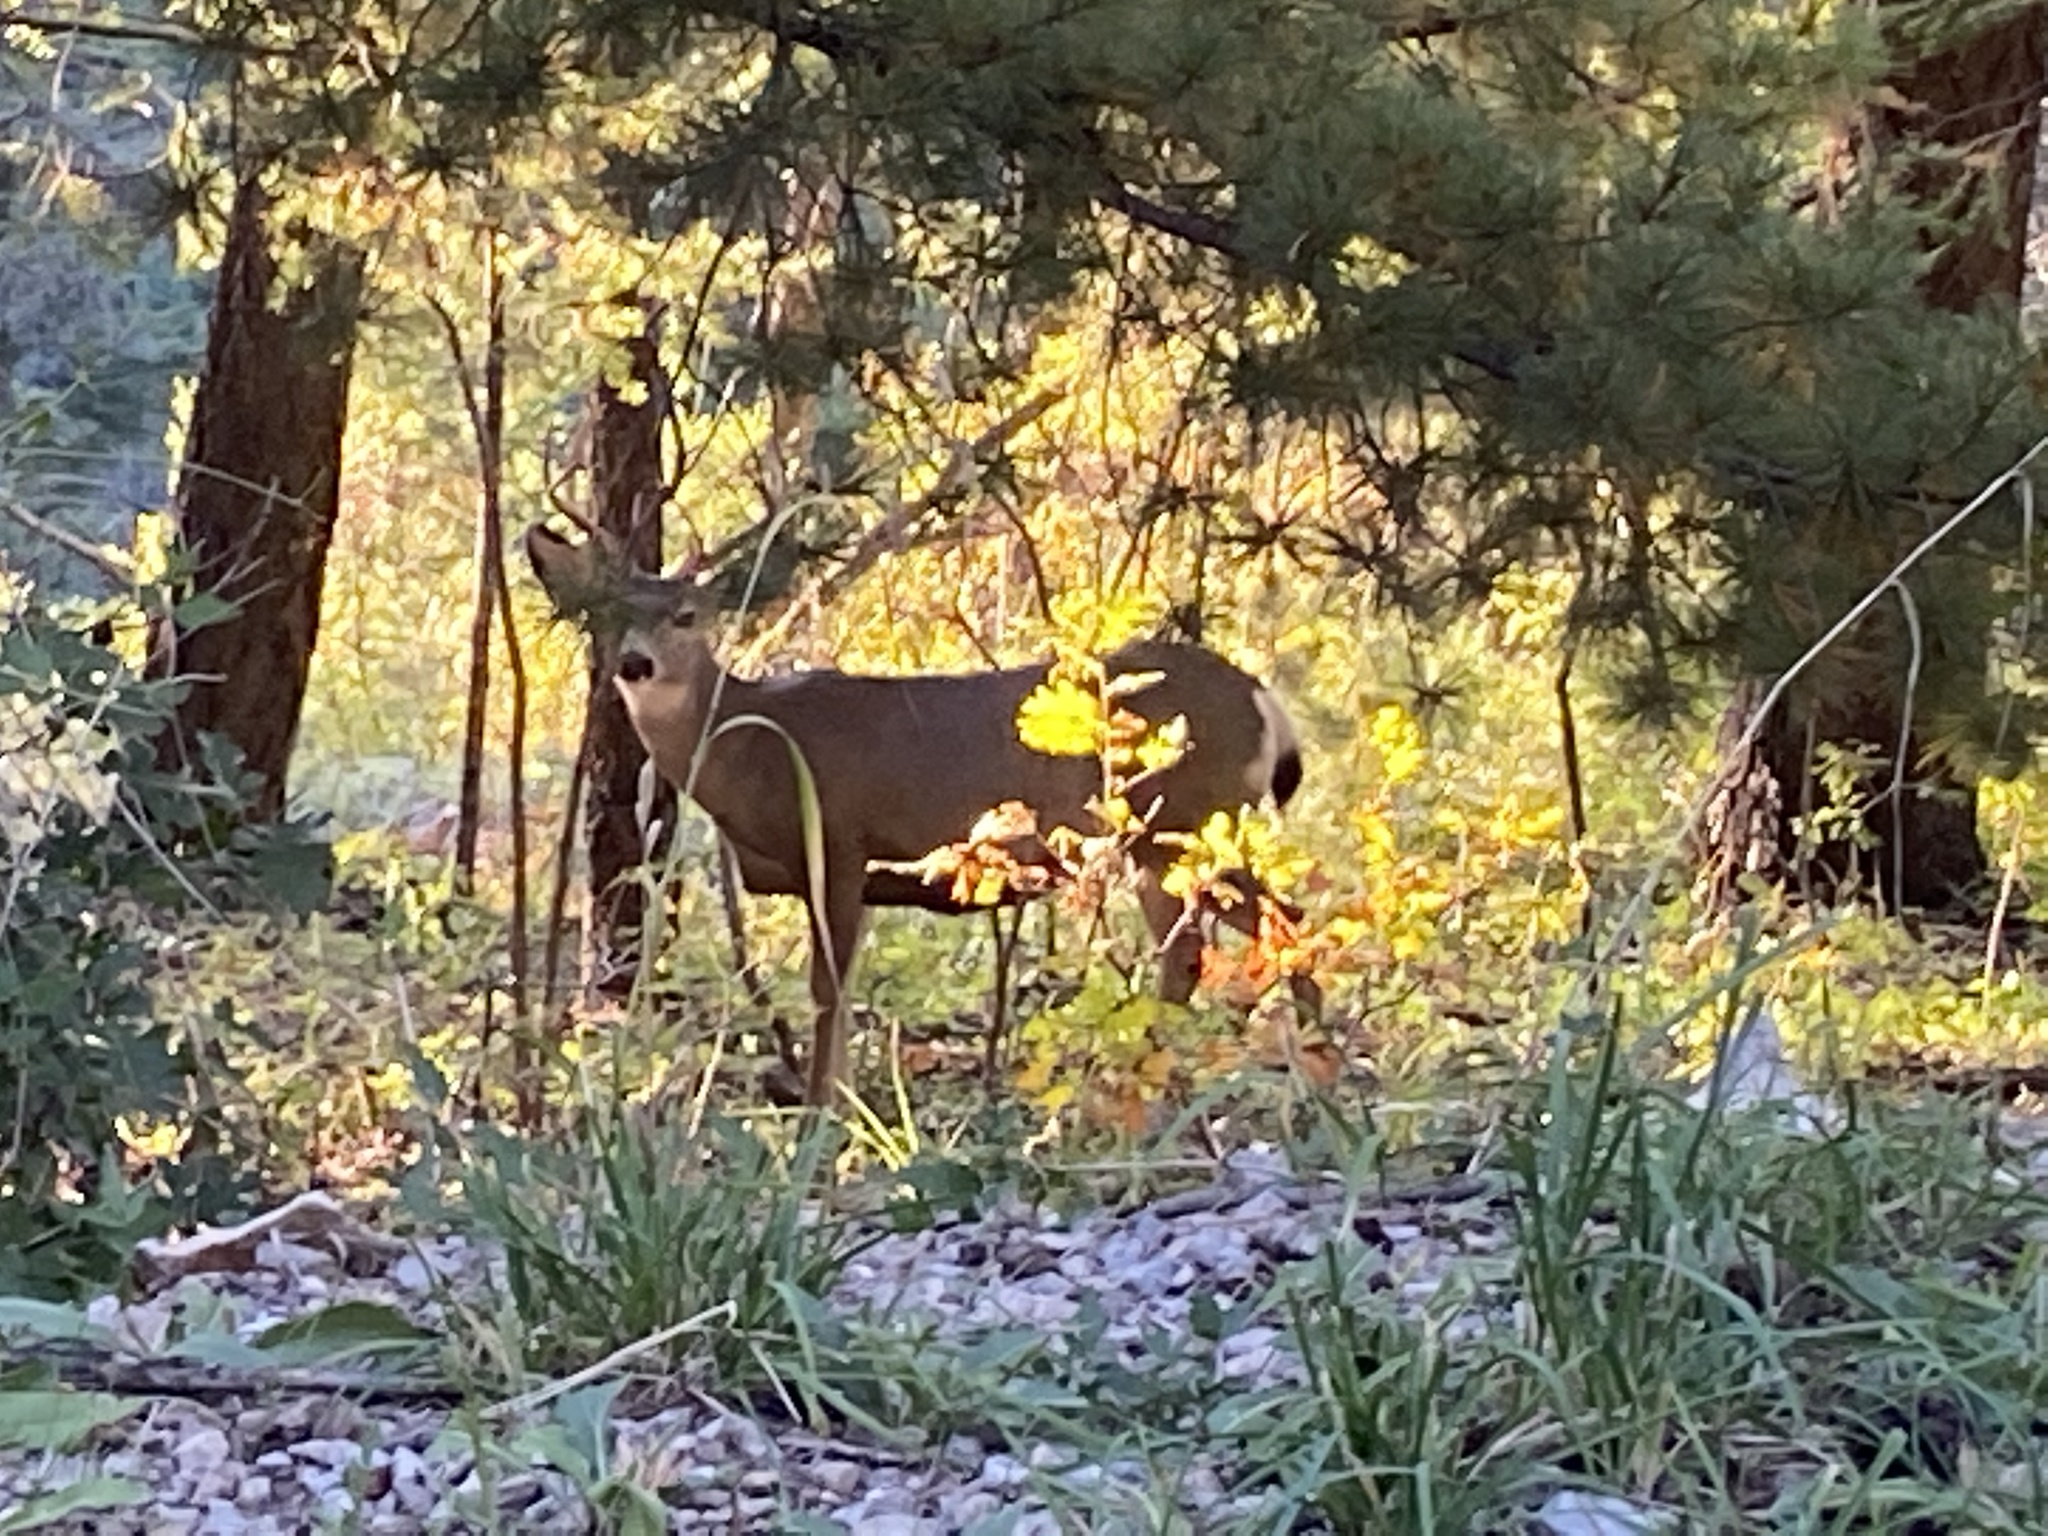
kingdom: Animalia
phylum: Chordata
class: Mammalia
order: Artiodactyla
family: Cervidae
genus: Odocoileus
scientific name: Odocoileus hemionus
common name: Mule deer
